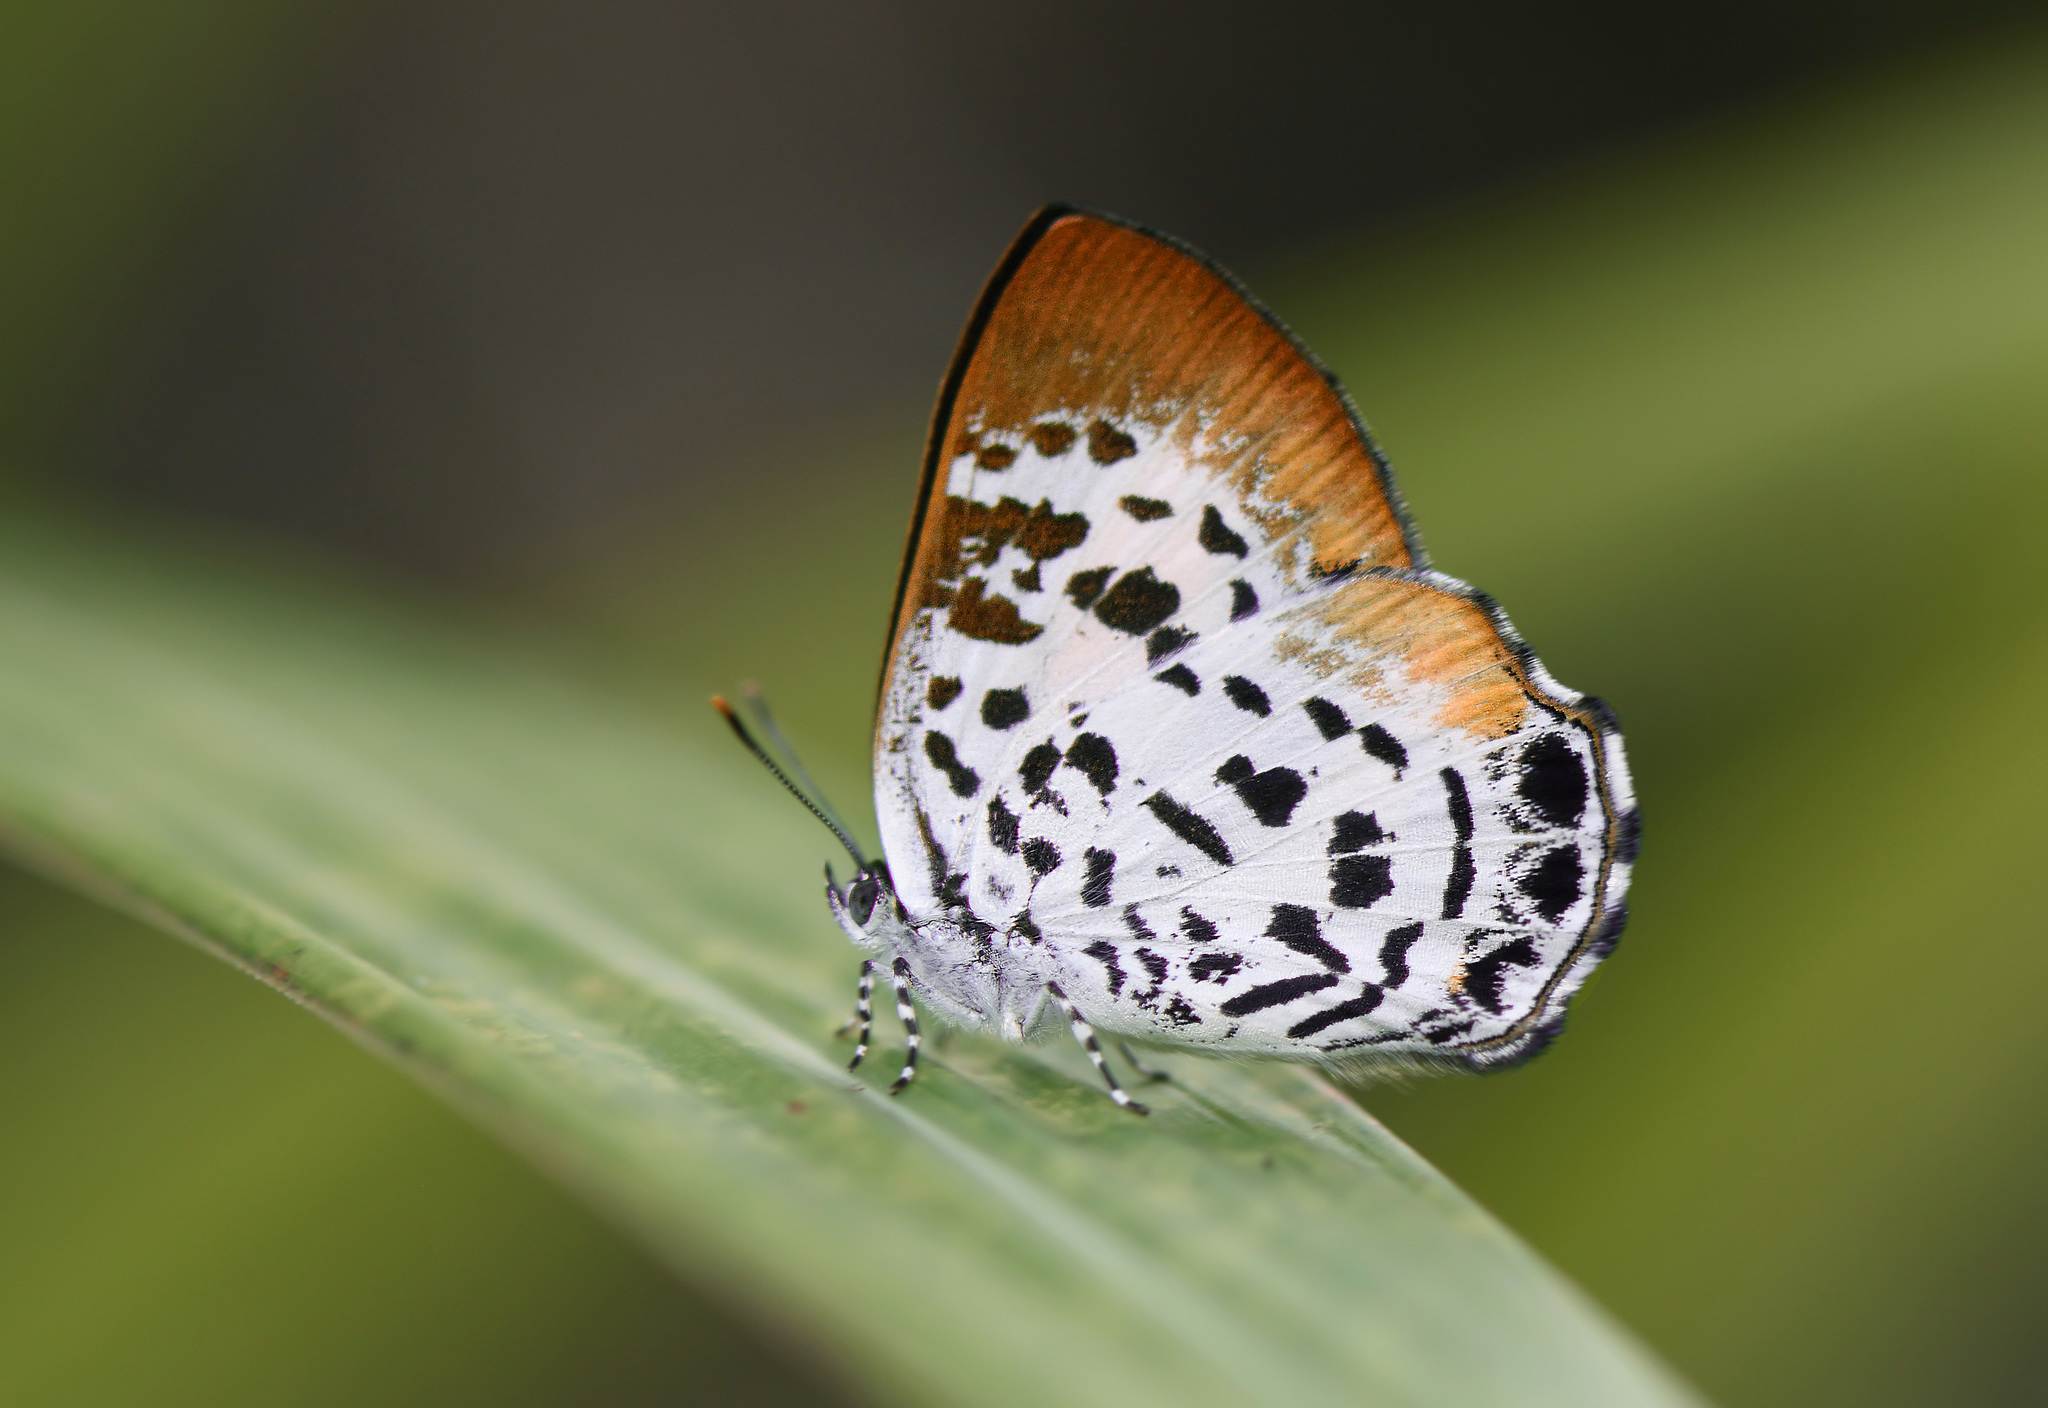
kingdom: Animalia
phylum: Arthropoda
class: Insecta
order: Lepidoptera
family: Lycaenidae
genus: Poritia
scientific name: Poritia plateni
